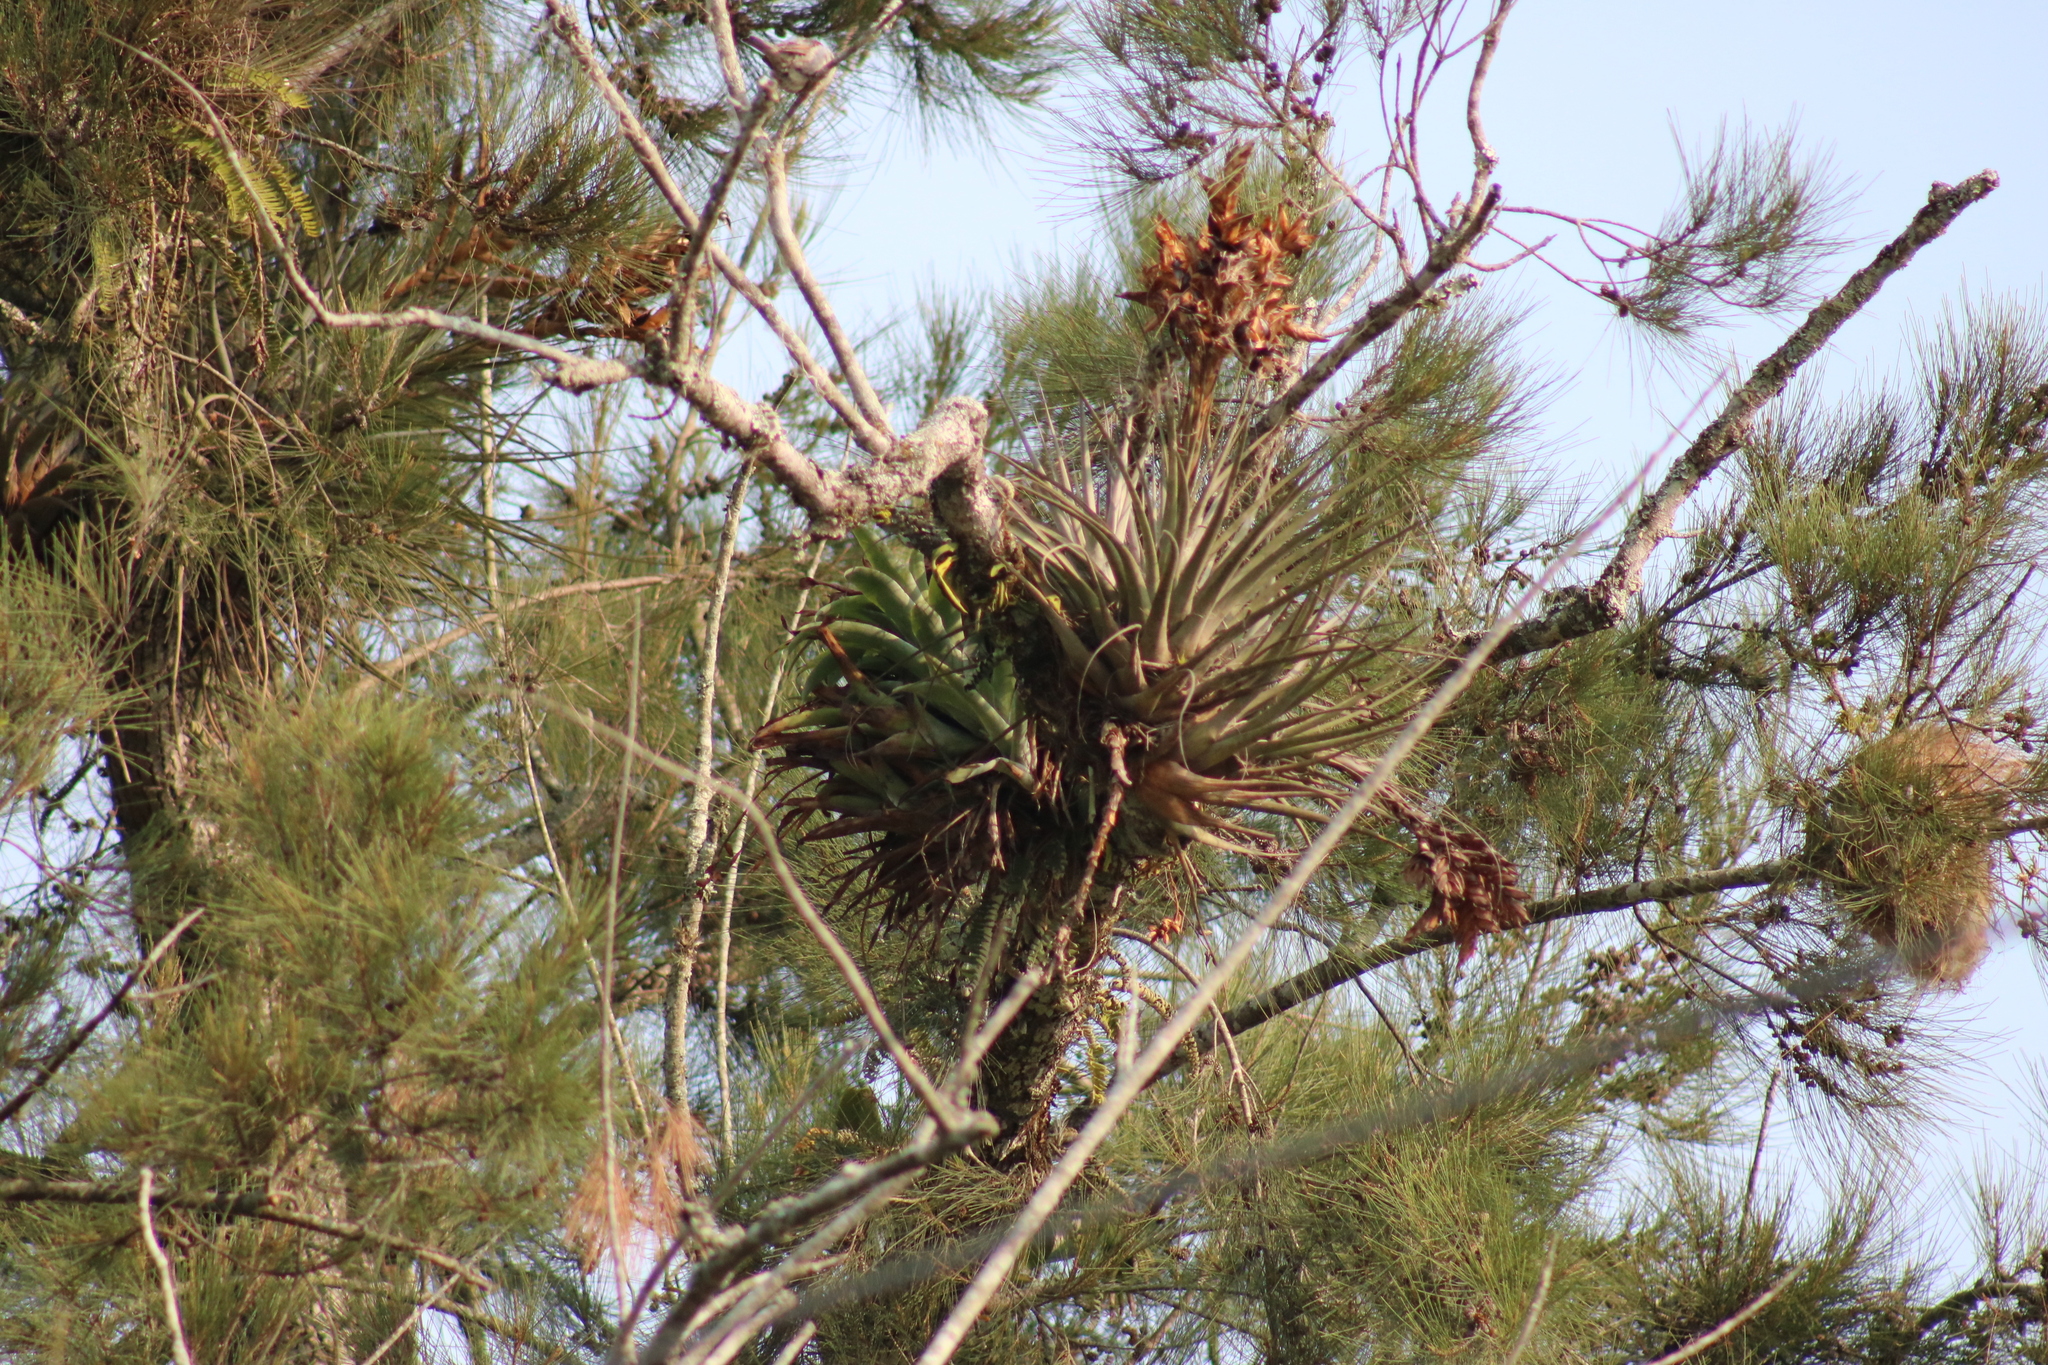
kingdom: Plantae
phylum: Tracheophyta
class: Liliopsida
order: Poales
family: Bromeliaceae
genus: Tillandsia
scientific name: Tillandsia rodrigueziana
